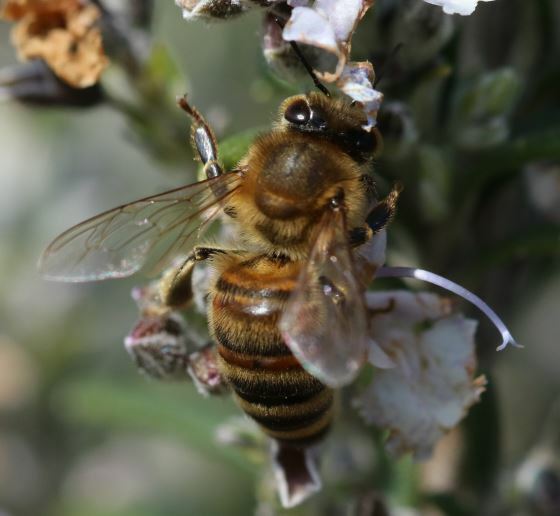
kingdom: Animalia
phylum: Arthropoda
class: Insecta
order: Hymenoptera
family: Apidae
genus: Apis
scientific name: Apis mellifera
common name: Honey bee
